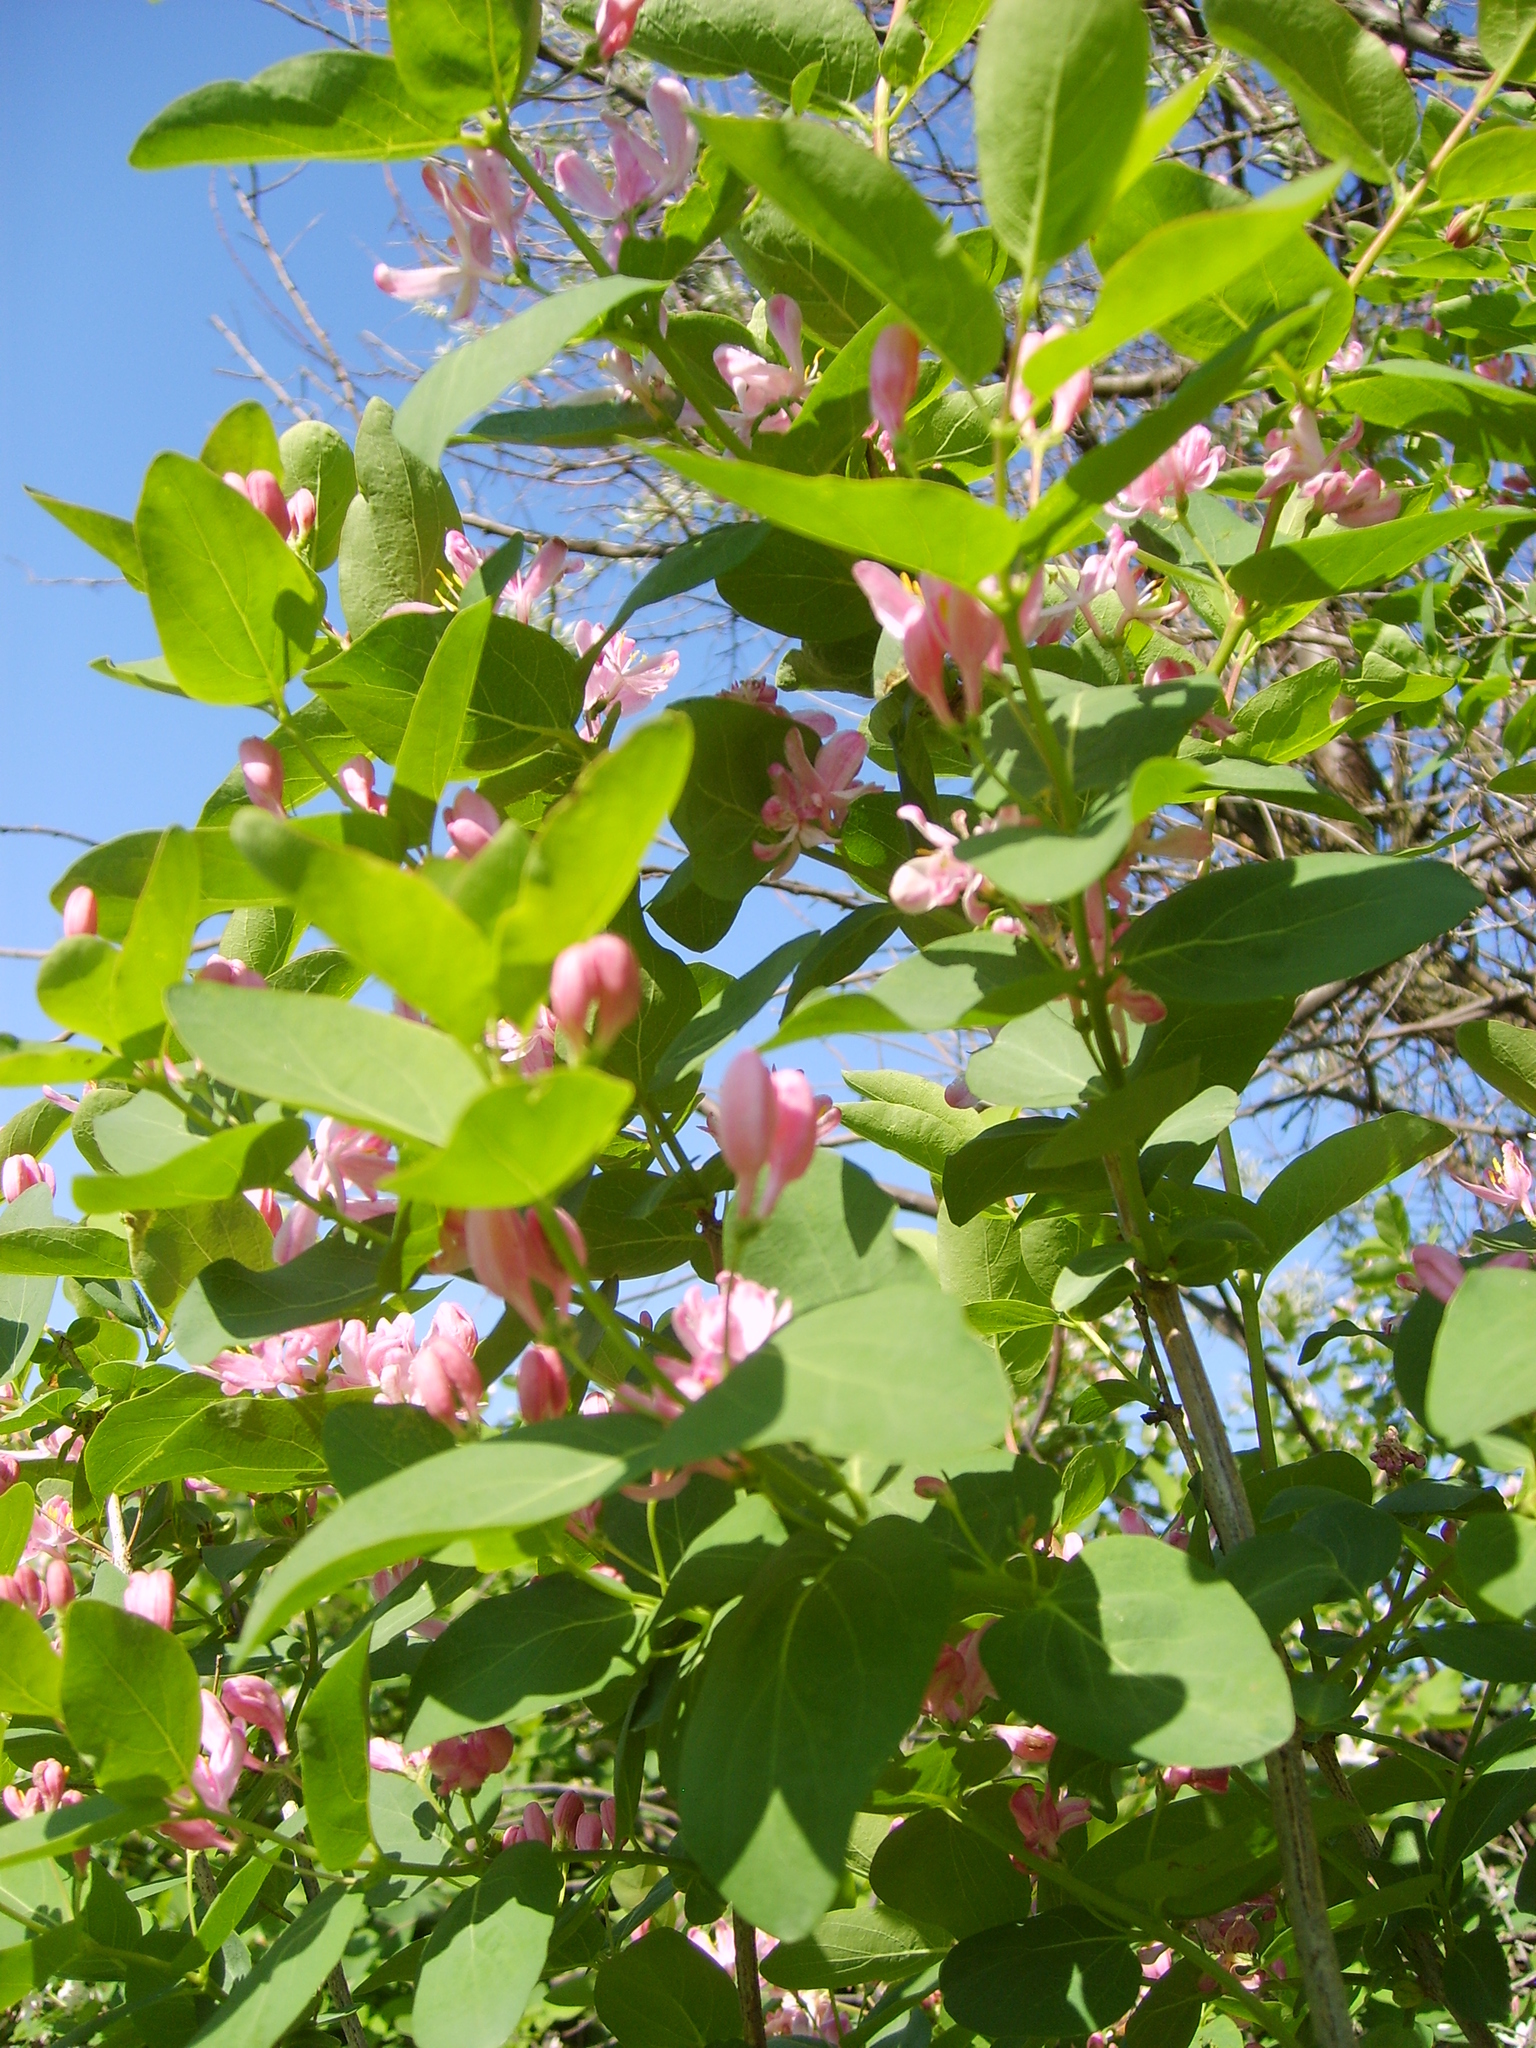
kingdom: Plantae
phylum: Tracheophyta
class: Magnoliopsida
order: Dipsacales
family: Caprifoliaceae
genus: Lonicera
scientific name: Lonicera tatarica
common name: Tatarian honeysuckle
